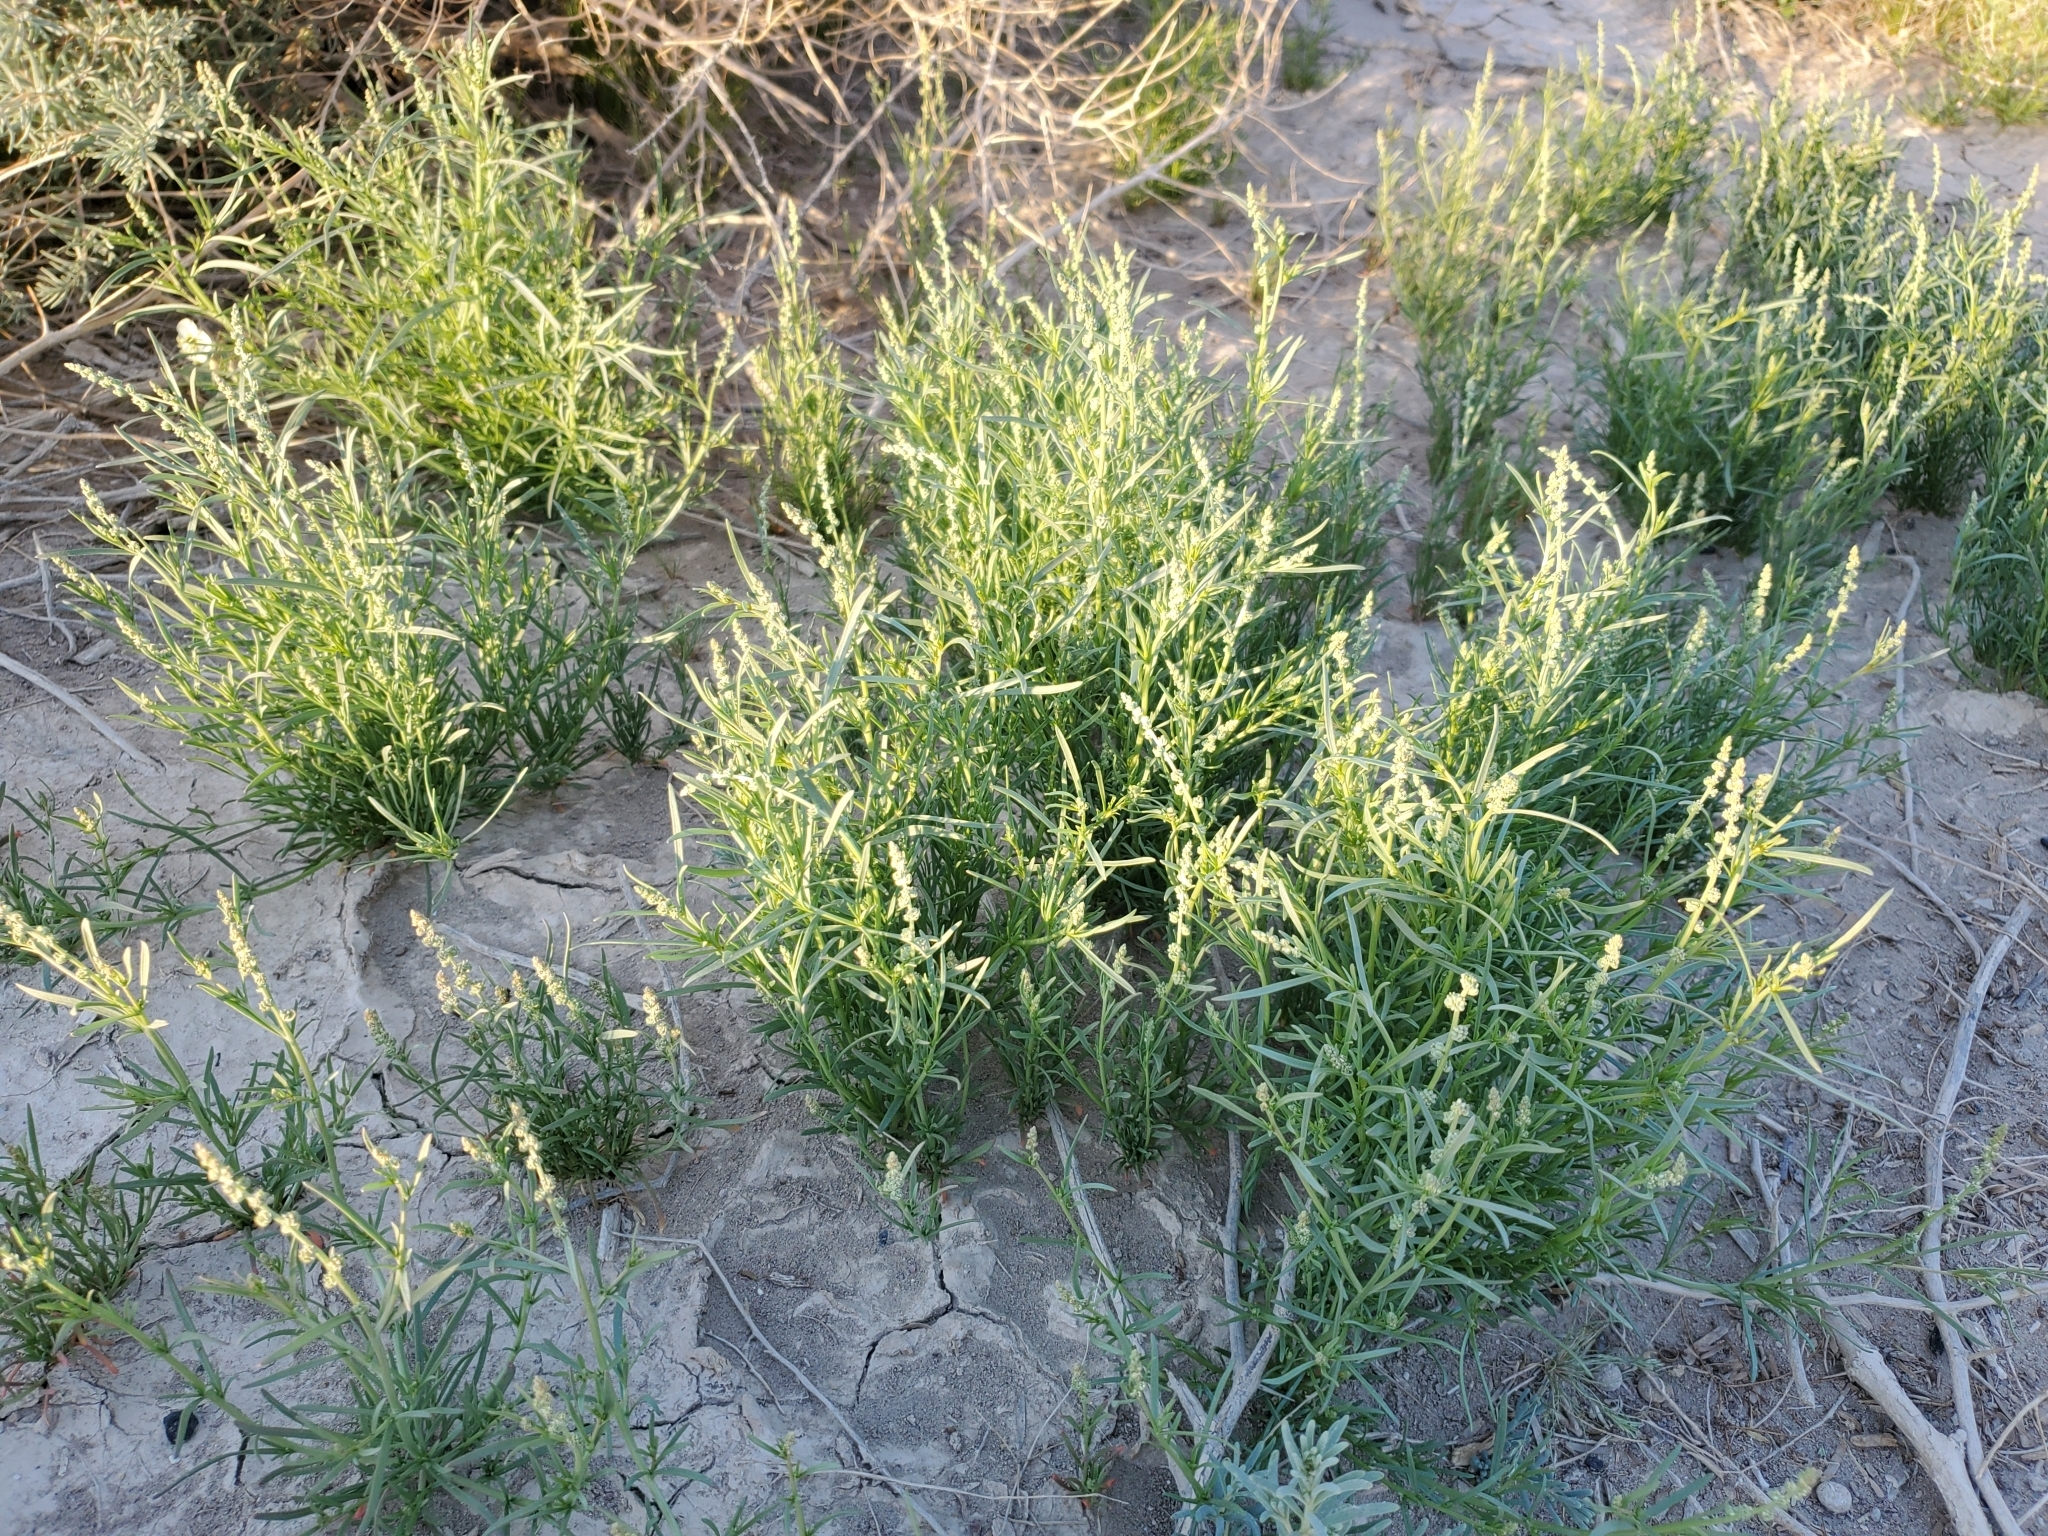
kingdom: Plantae
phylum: Tracheophyta
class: Magnoliopsida
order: Brassicales
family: Resedaceae
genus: Oligomeris
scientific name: Oligomeris linifolia
